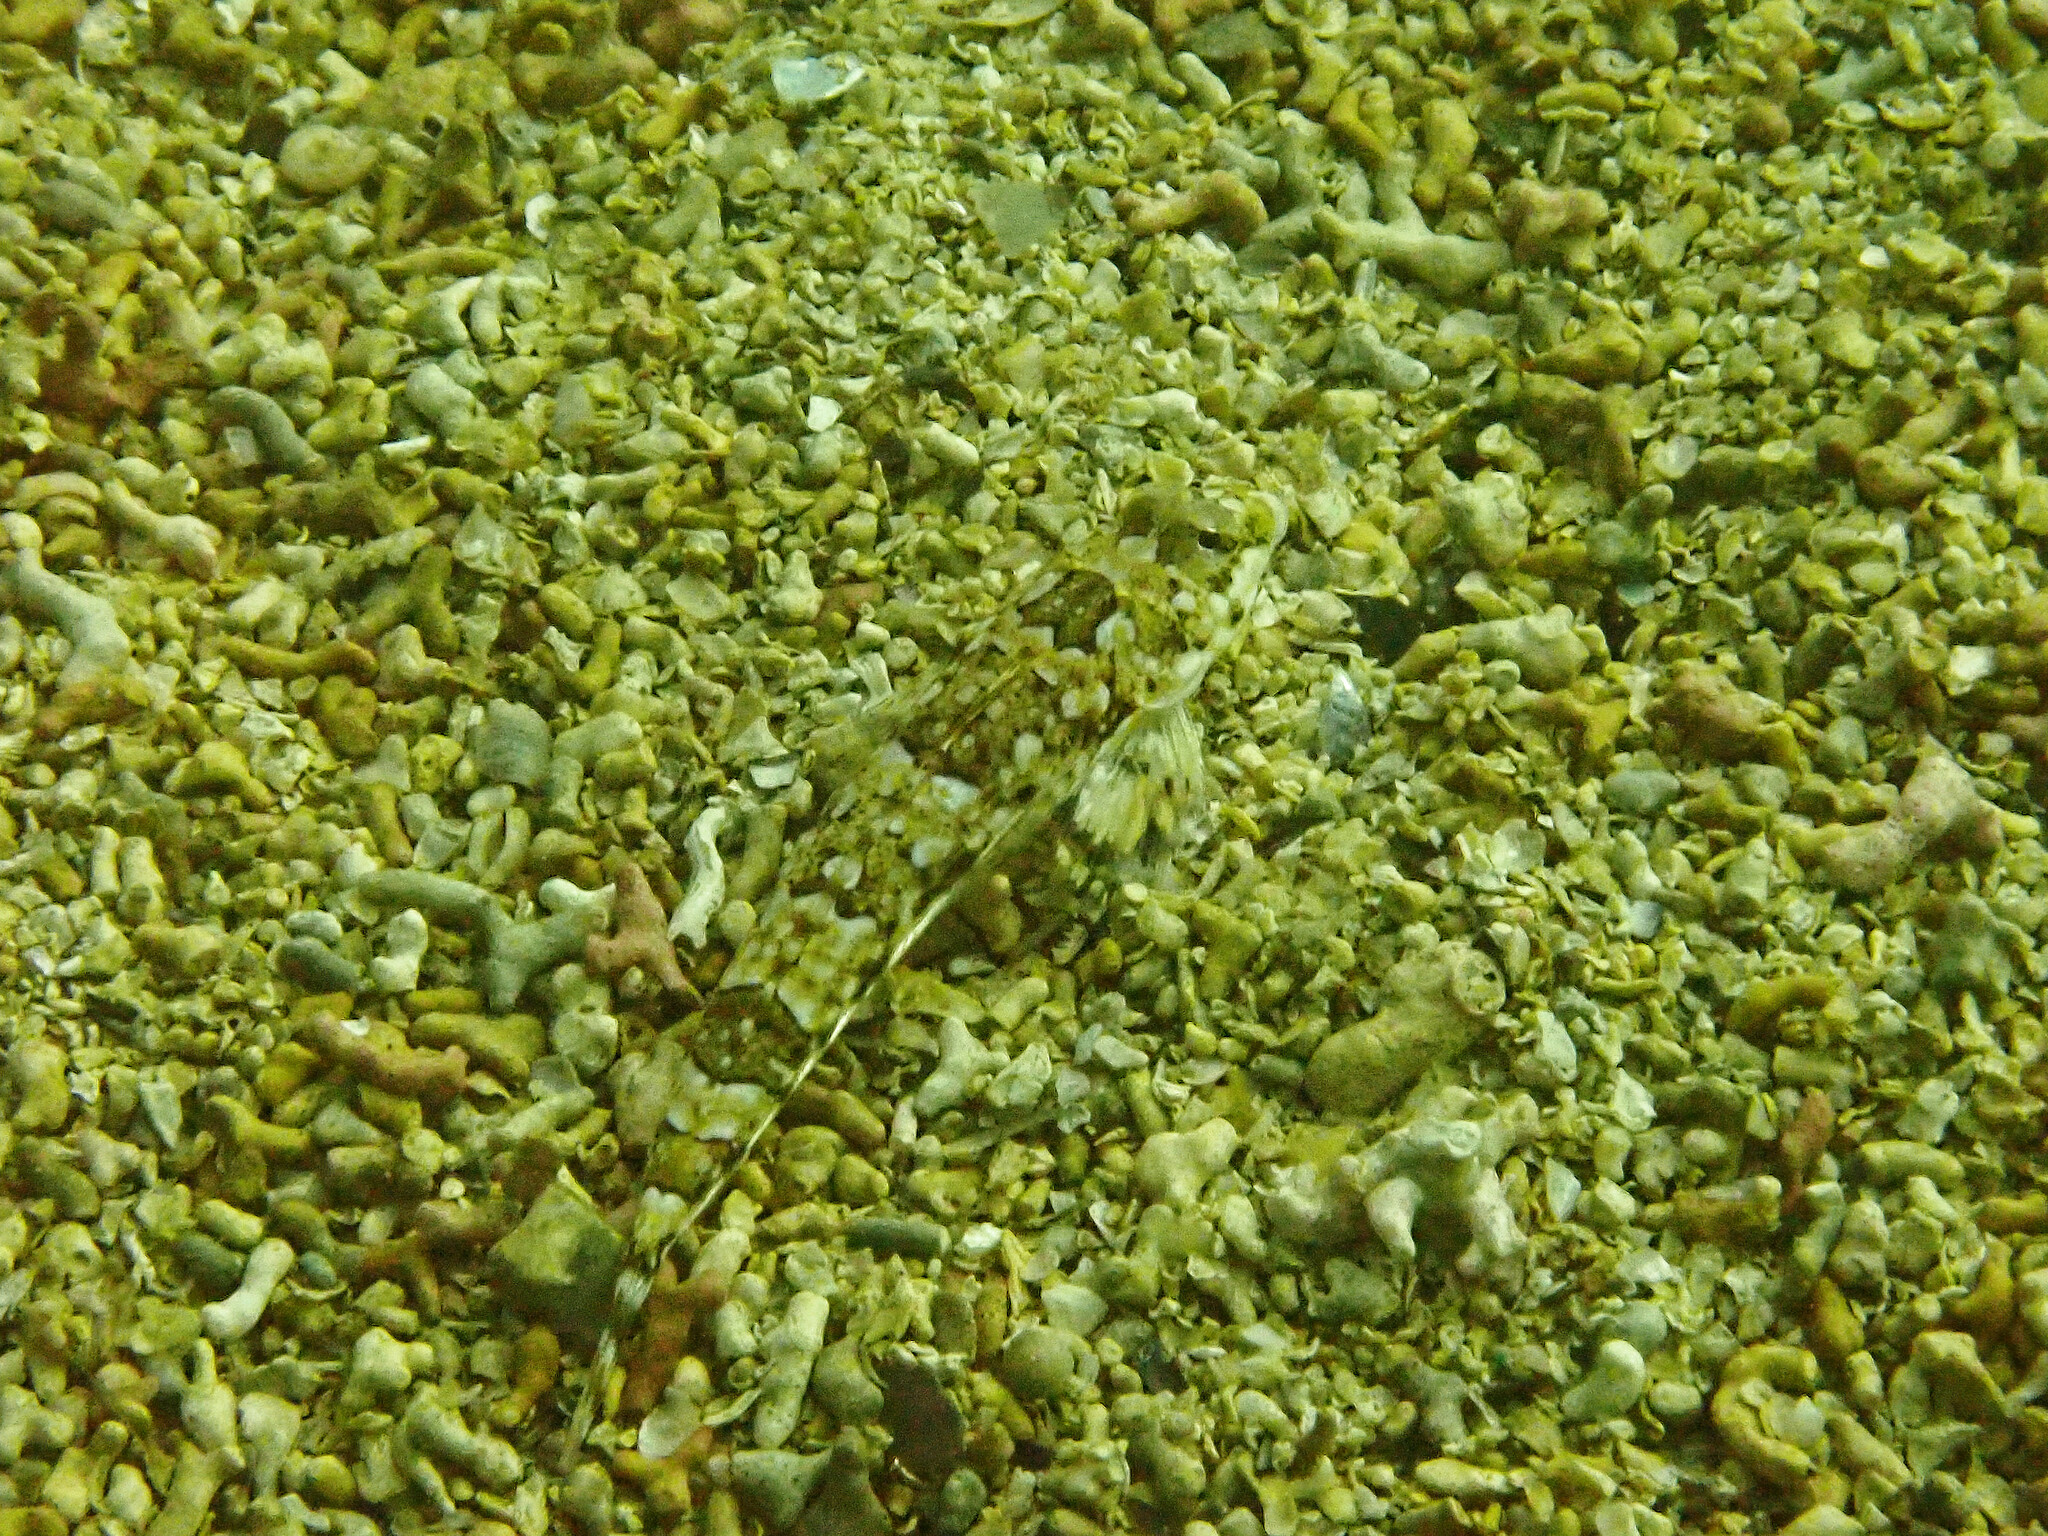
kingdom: Animalia
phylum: Chordata
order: Perciformes
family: Callionymidae
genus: Callionymus
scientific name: Callionymus reticulatus
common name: Reticulated dragonet
